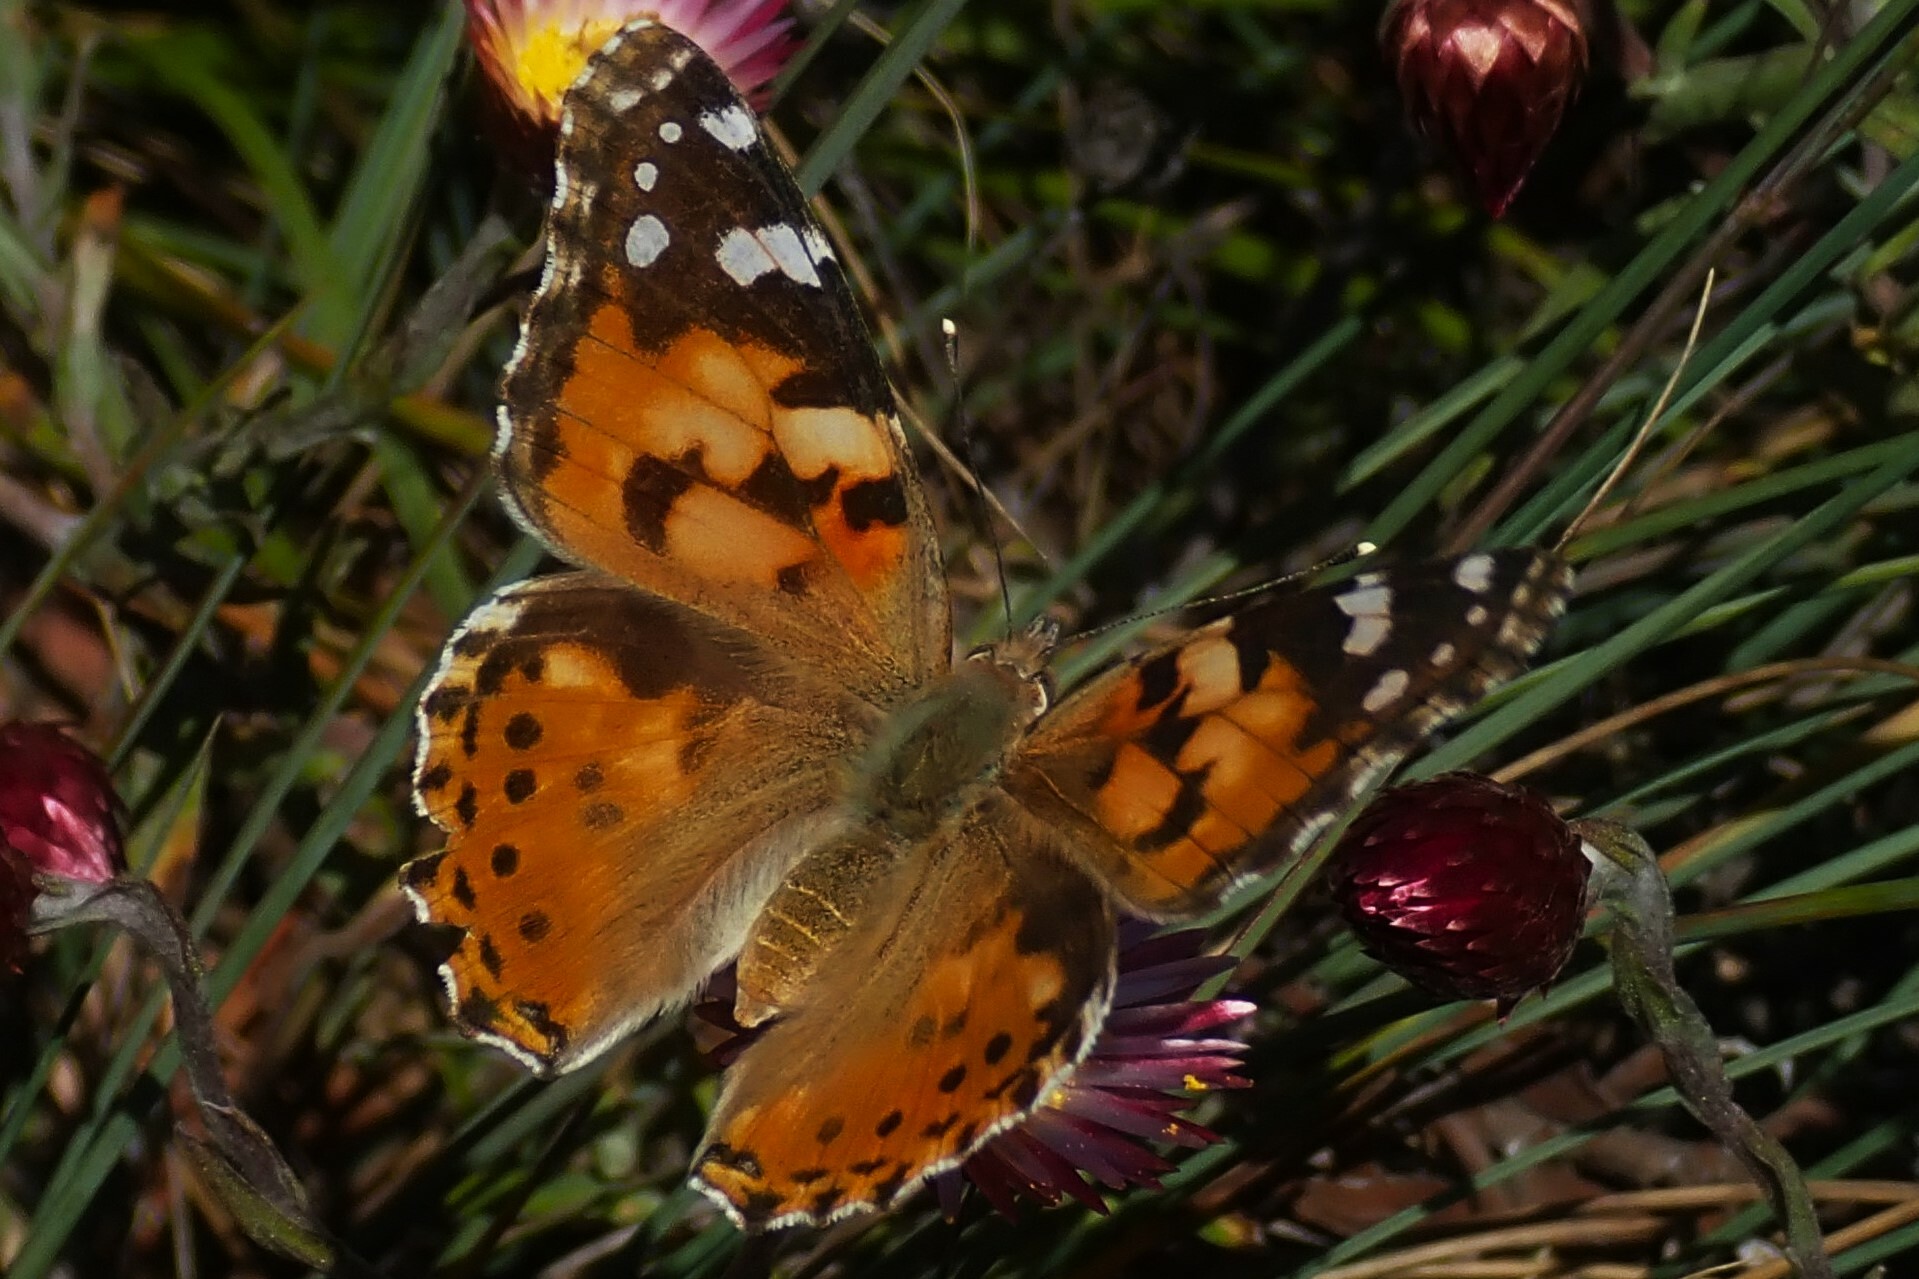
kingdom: Animalia
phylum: Arthropoda
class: Insecta
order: Lepidoptera
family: Nymphalidae
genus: Vanessa
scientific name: Vanessa cardui
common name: Painted lady
